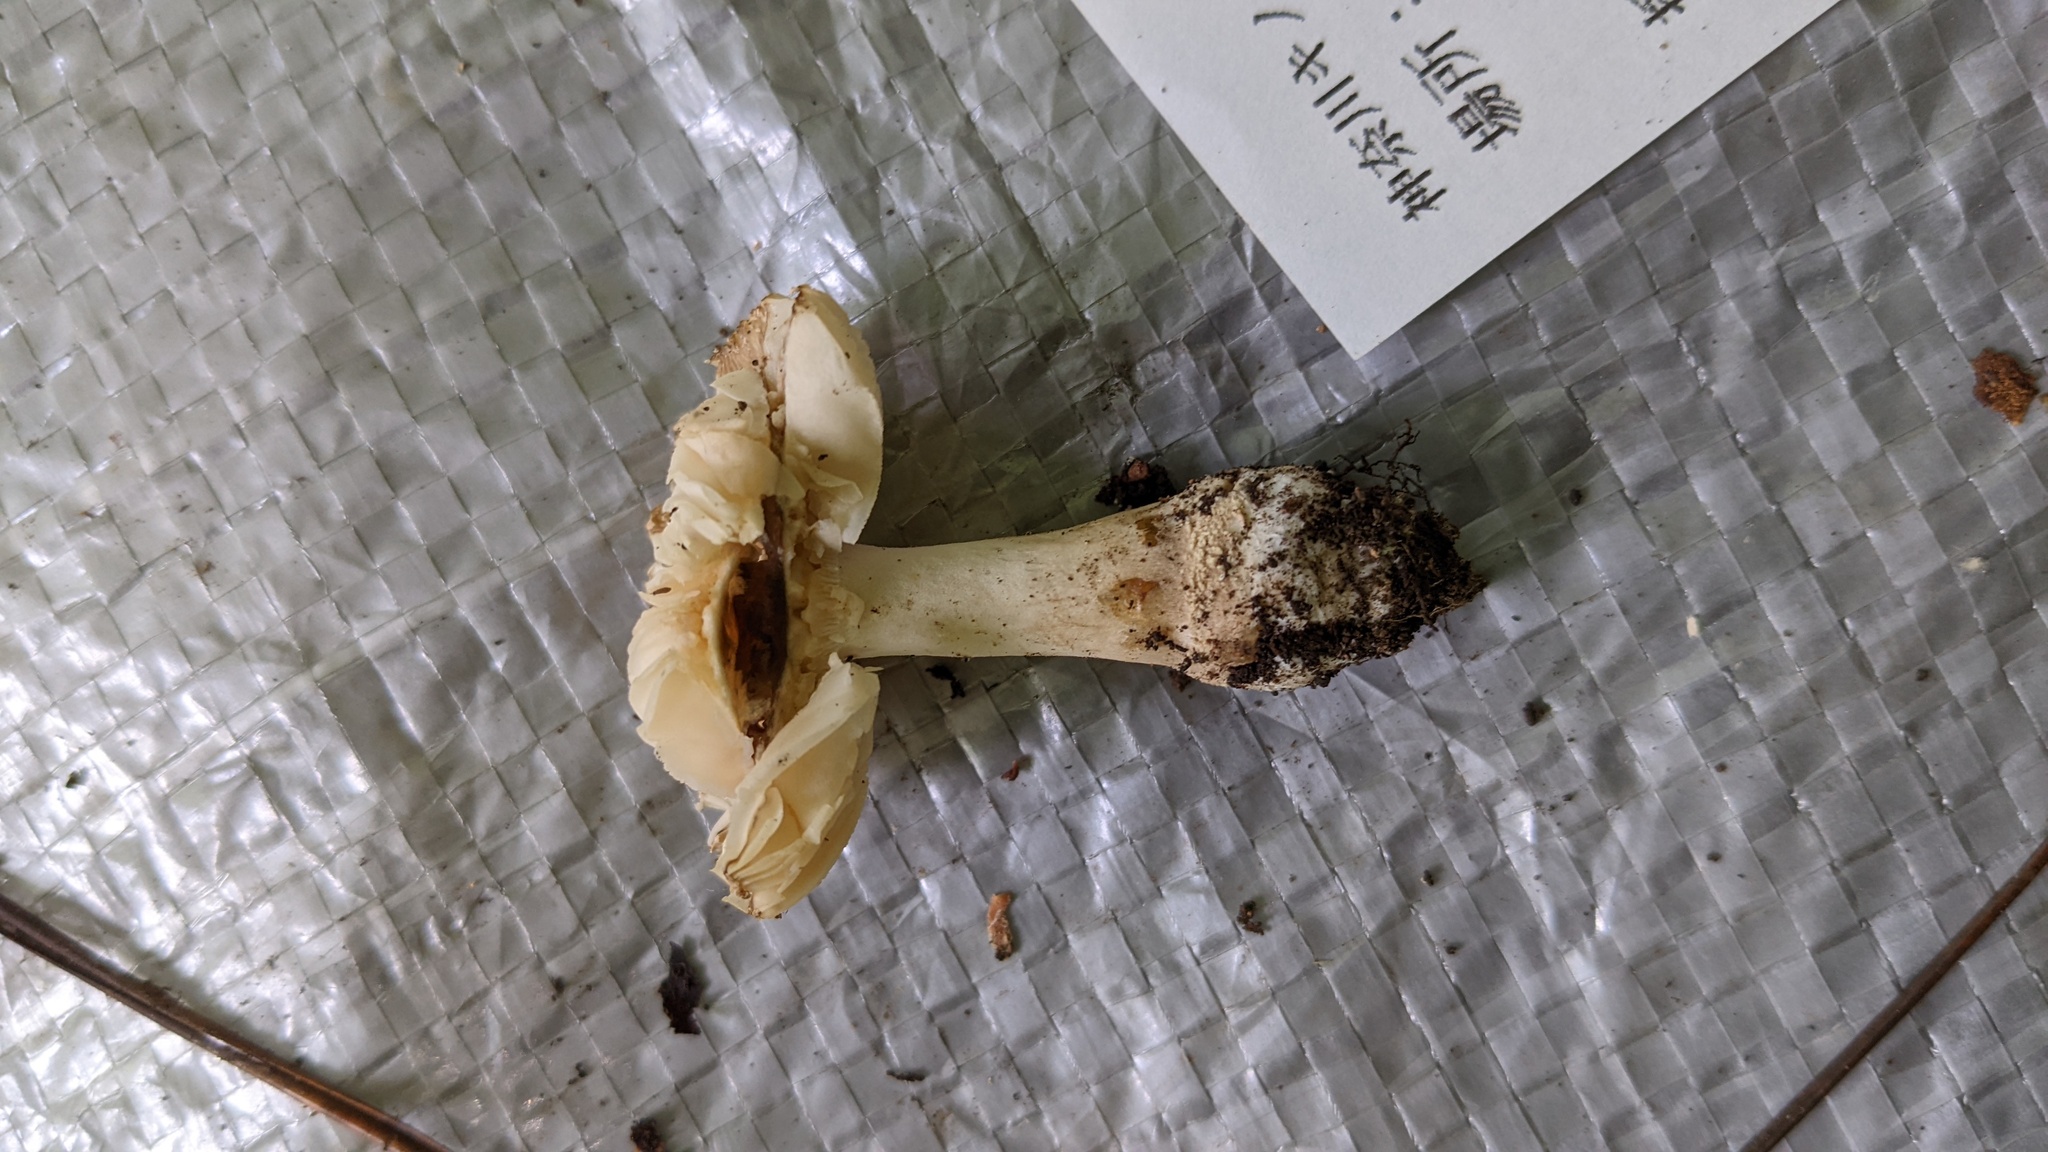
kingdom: Fungi
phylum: Basidiomycota
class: Agaricomycetes
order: Agaricales
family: Amanitaceae
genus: Amanita
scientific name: Amanita sychnopyramis
